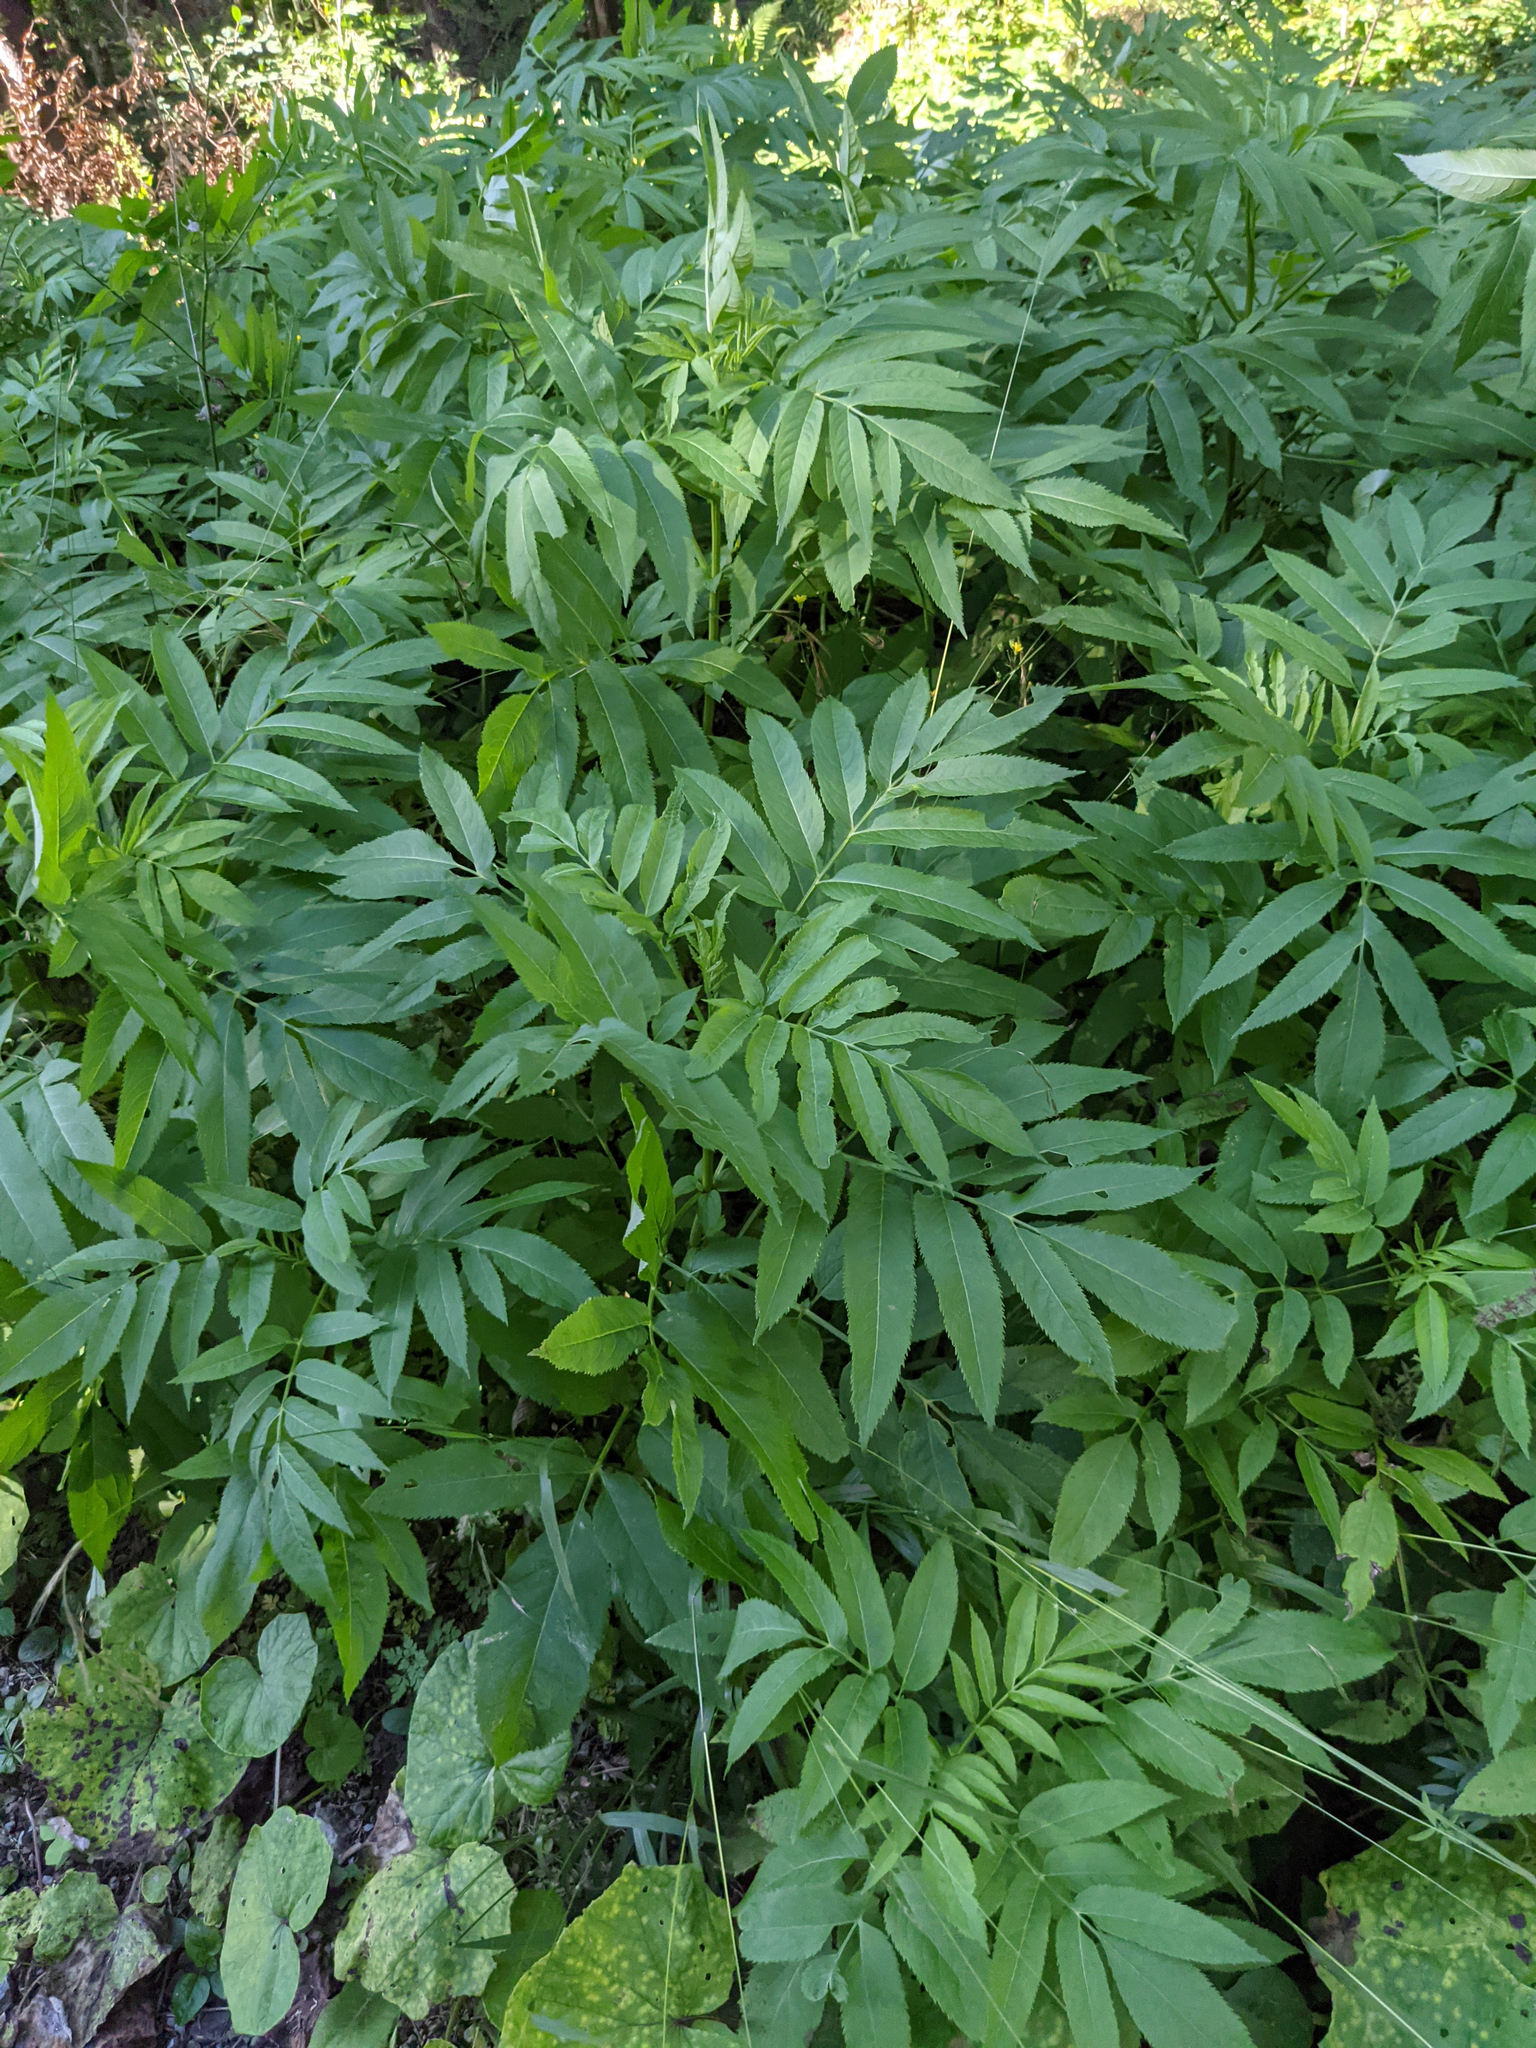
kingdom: Plantae
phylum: Tracheophyta
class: Magnoliopsida
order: Dipsacales
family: Viburnaceae
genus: Sambucus
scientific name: Sambucus ebulus
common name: Dwarf elder
